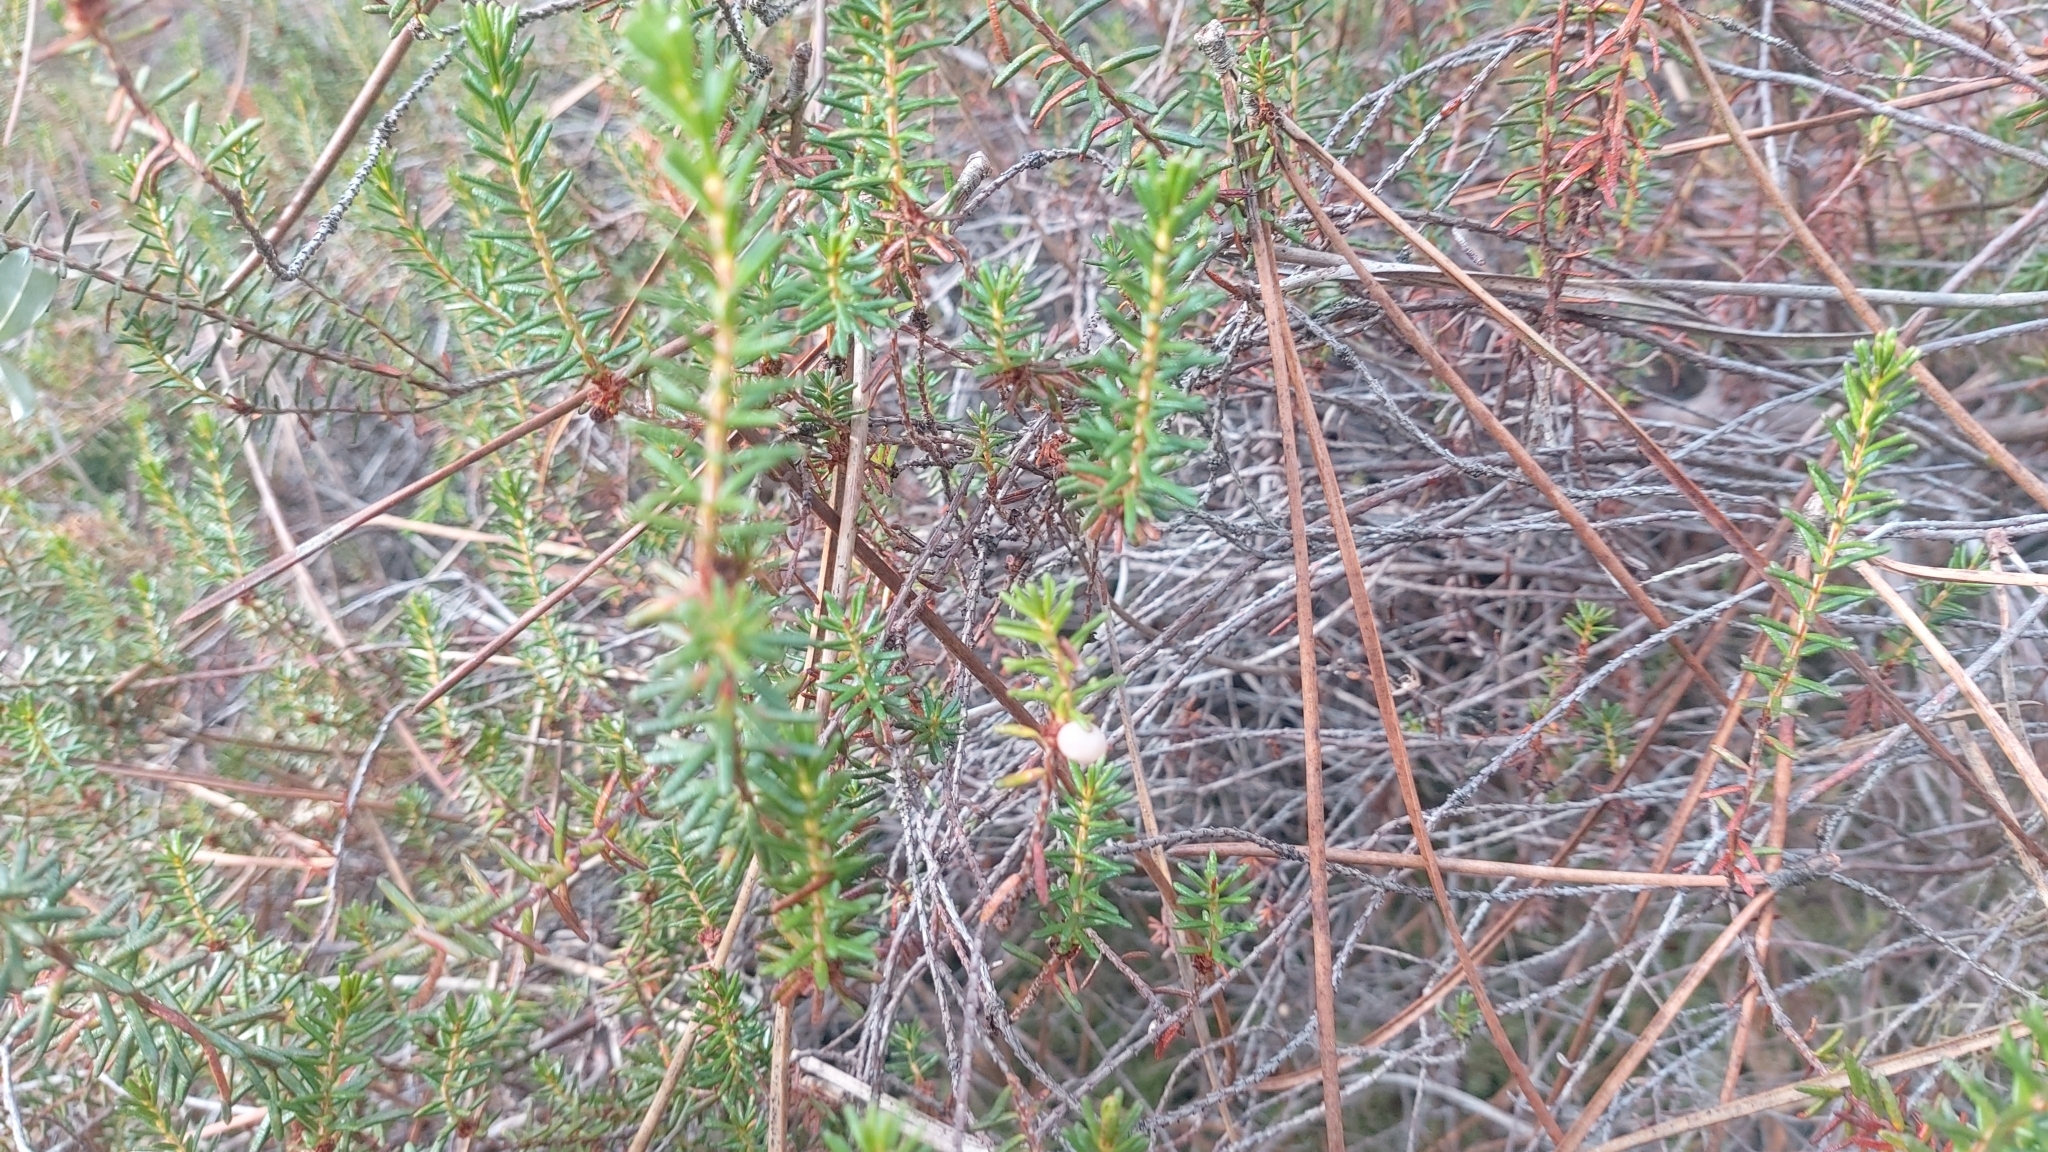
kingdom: Plantae
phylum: Tracheophyta
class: Magnoliopsida
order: Ericales
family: Ericaceae
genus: Corema
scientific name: Corema album
